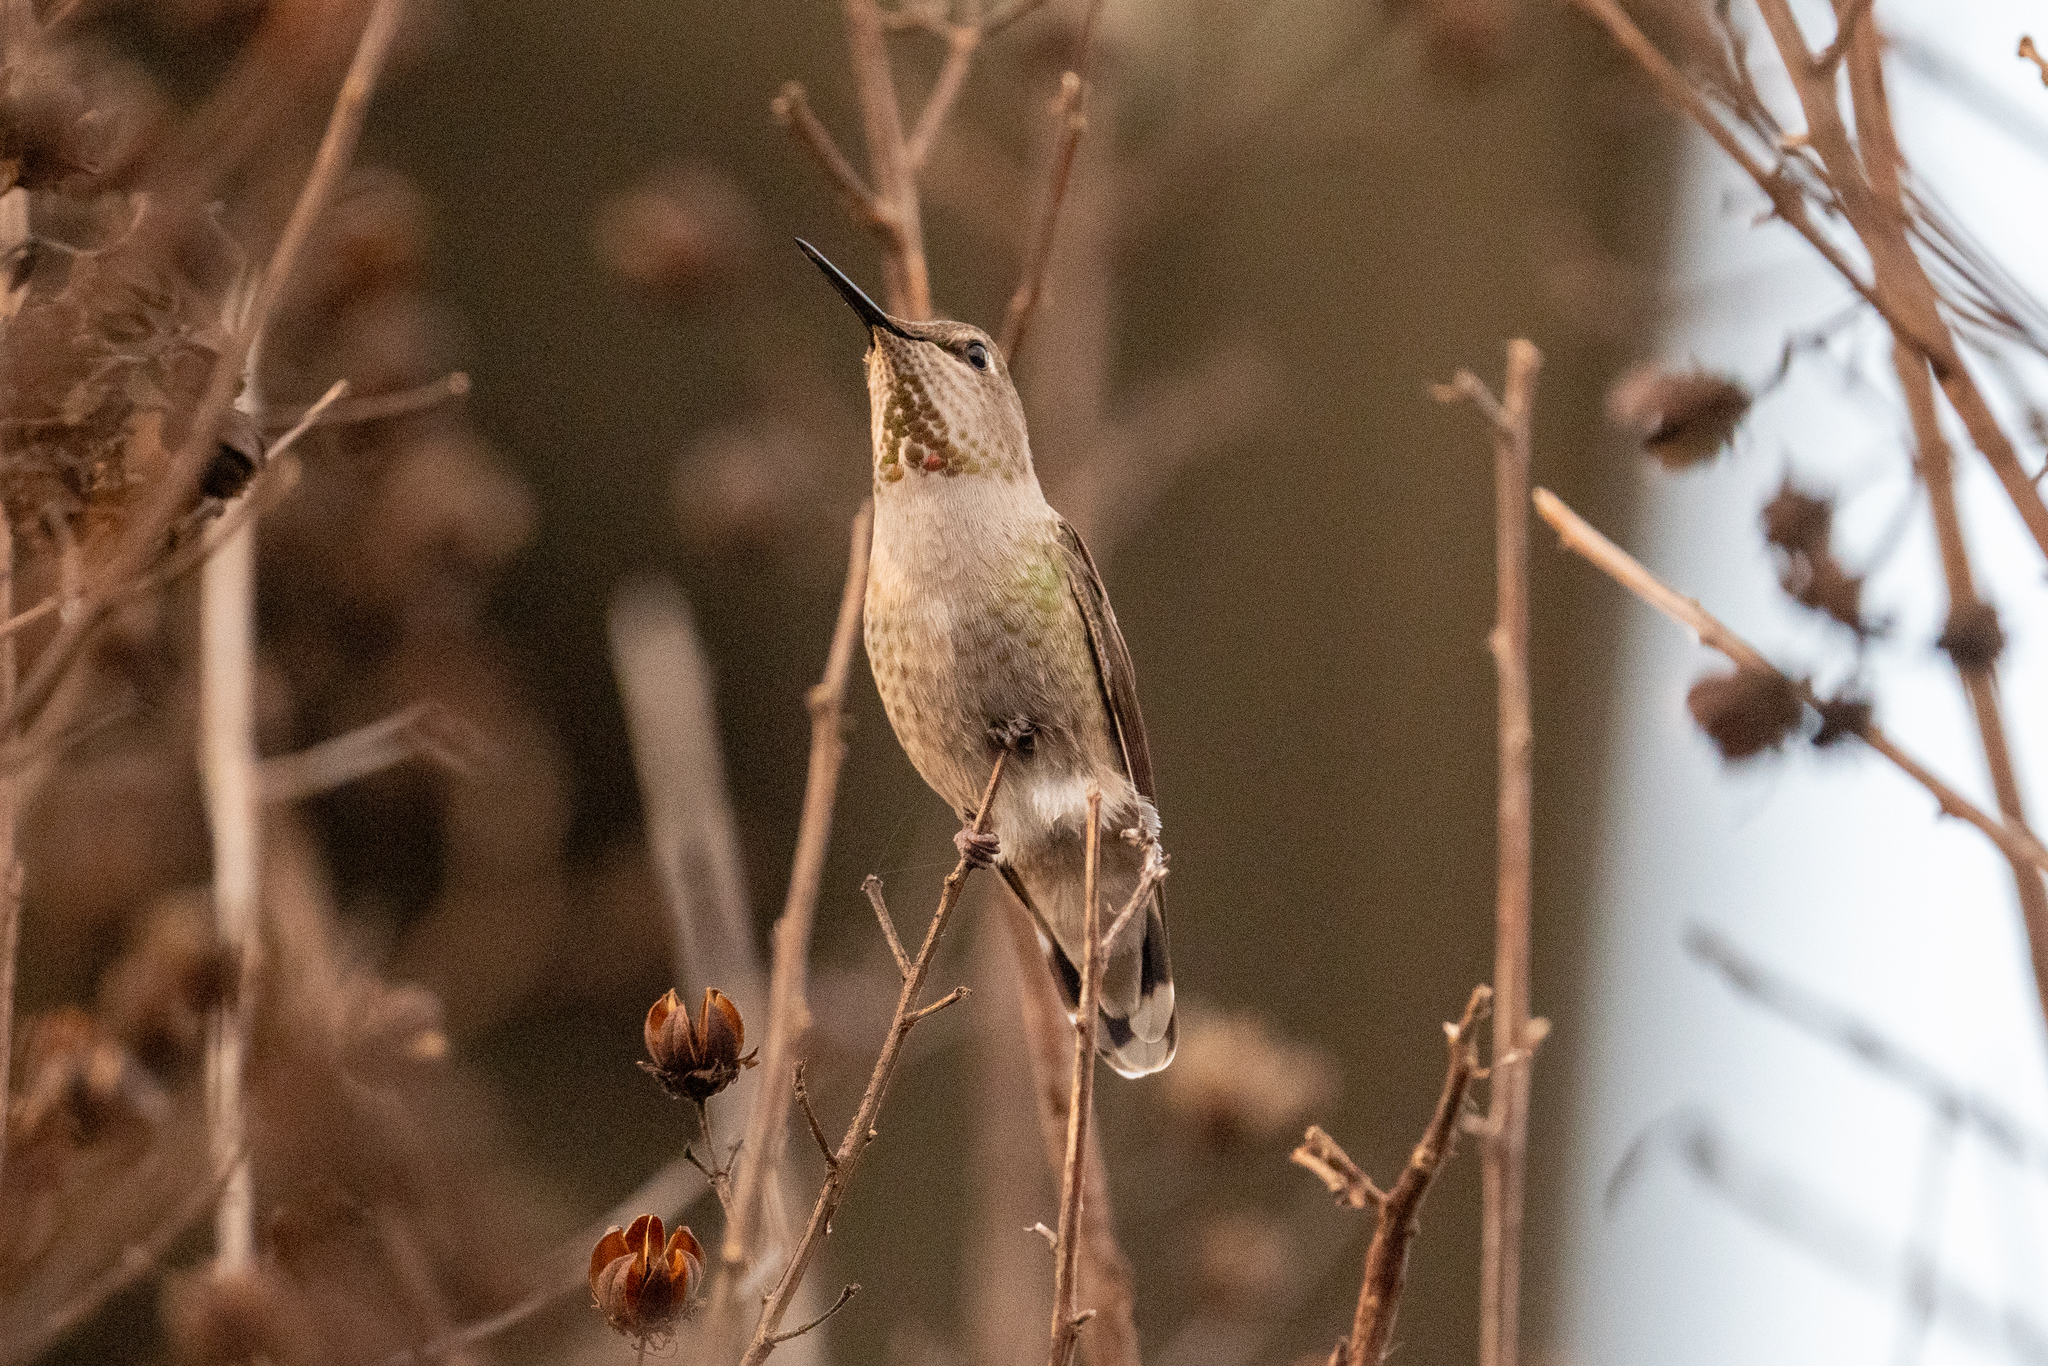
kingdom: Animalia
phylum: Chordata
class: Aves
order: Apodiformes
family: Trochilidae
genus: Calypte
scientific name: Calypte anna
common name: Anna's hummingbird
